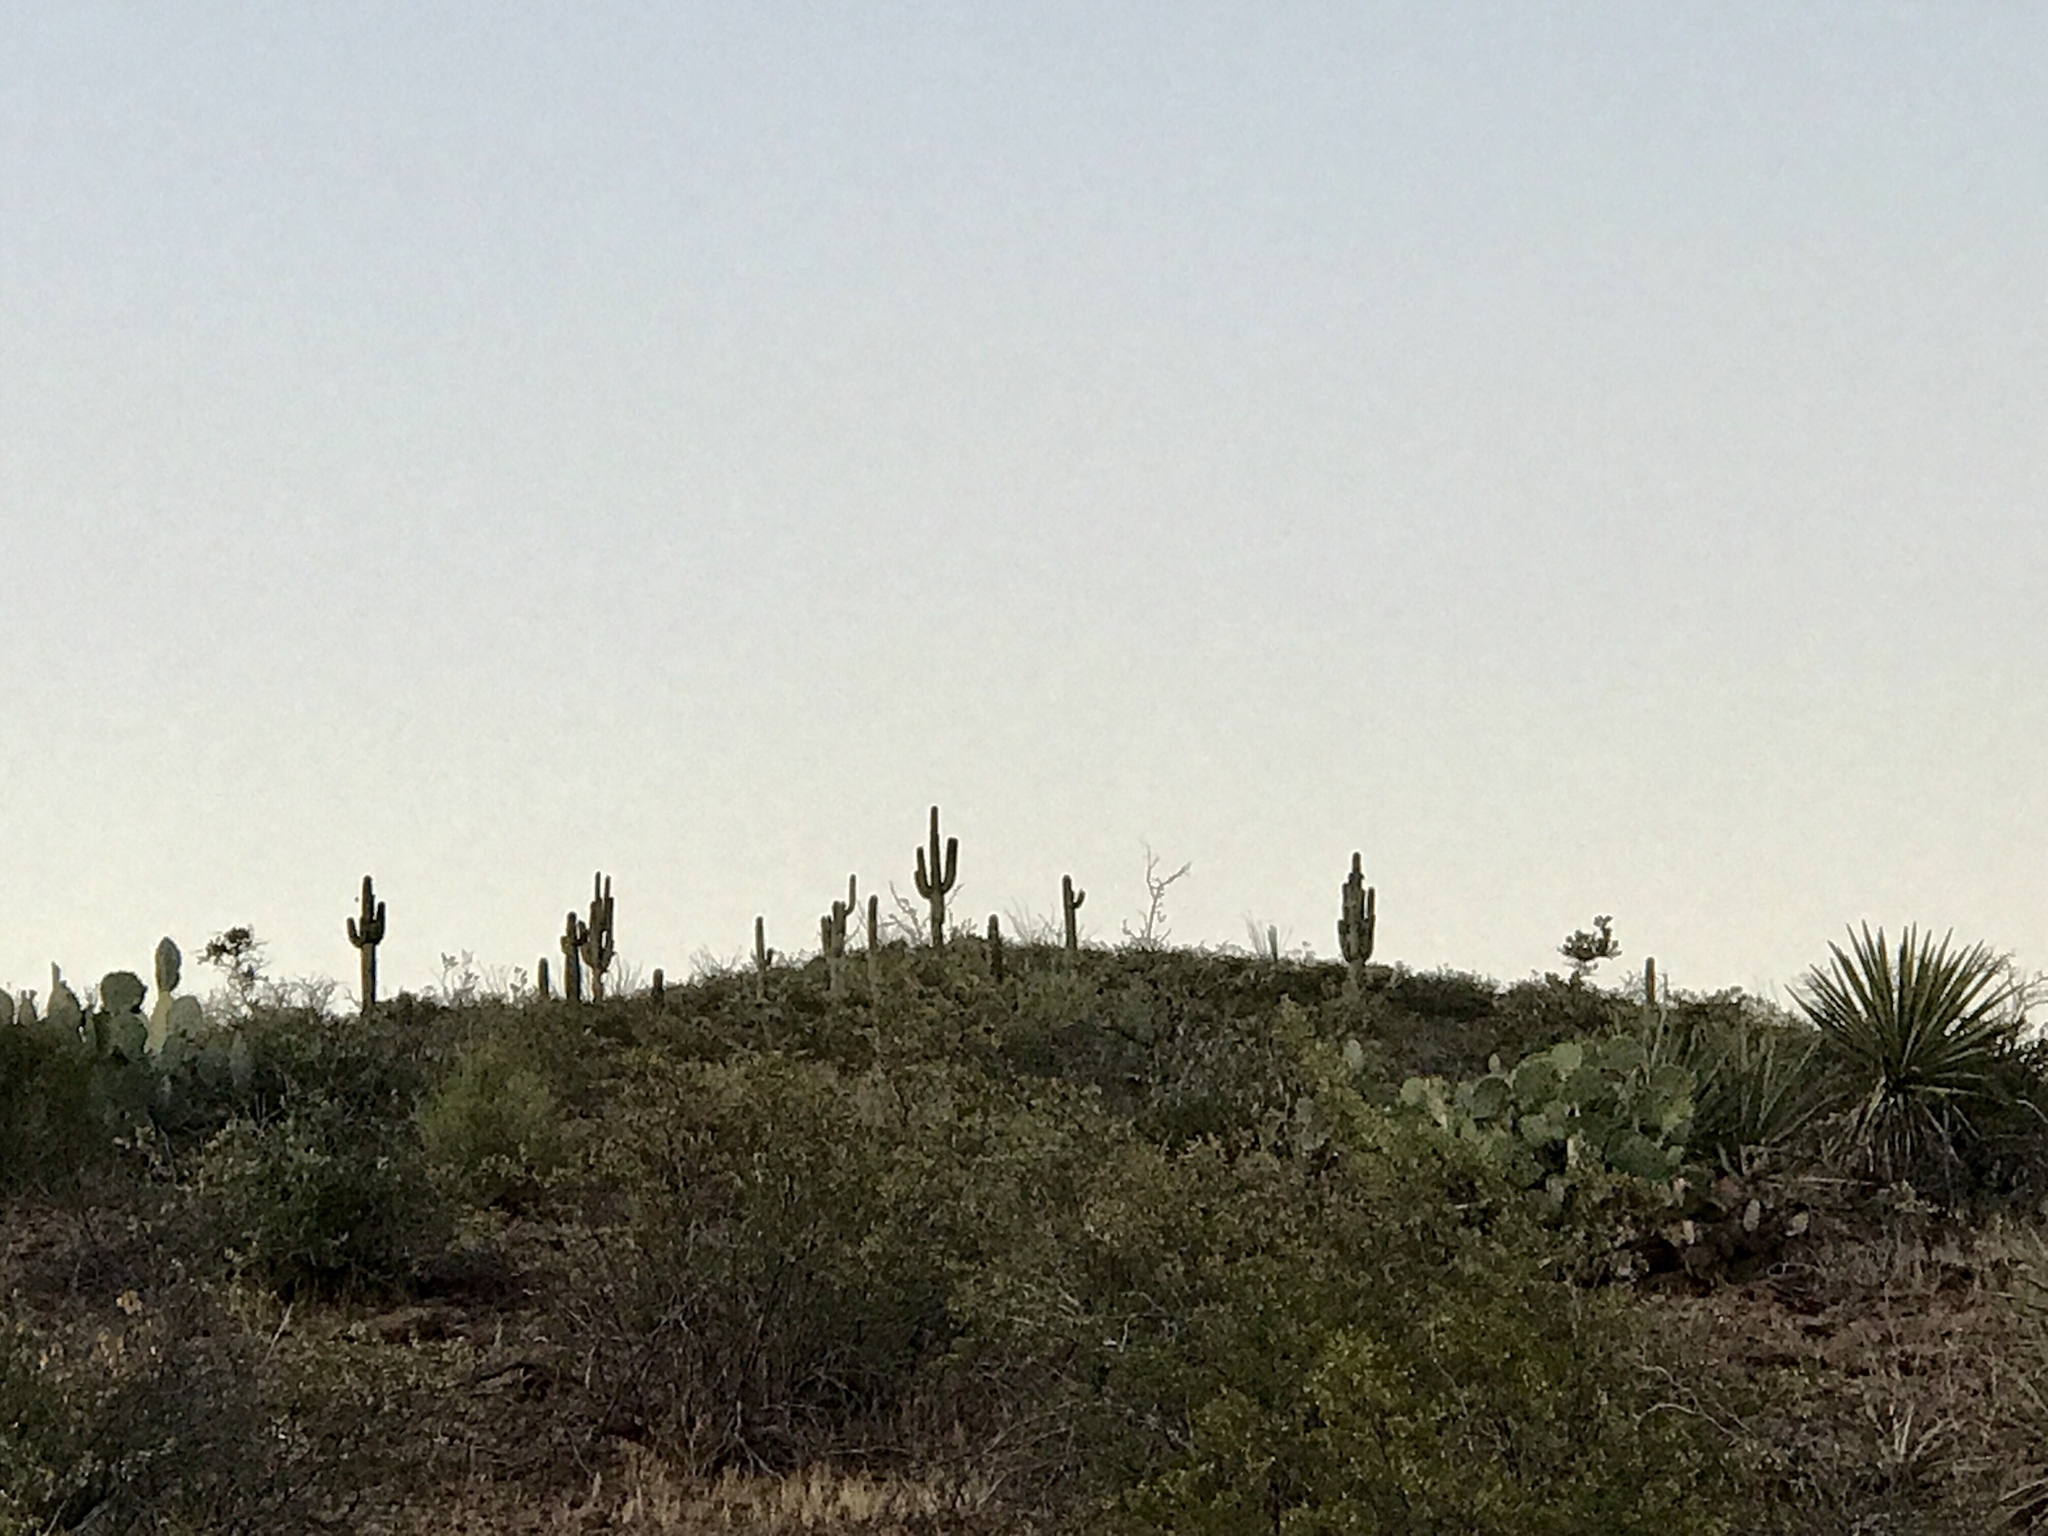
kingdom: Plantae
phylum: Tracheophyta
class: Magnoliopsida
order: Caryophyllales
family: Cactaceae
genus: Carnegiea
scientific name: Carnegiea gigantea
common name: Saguaro
